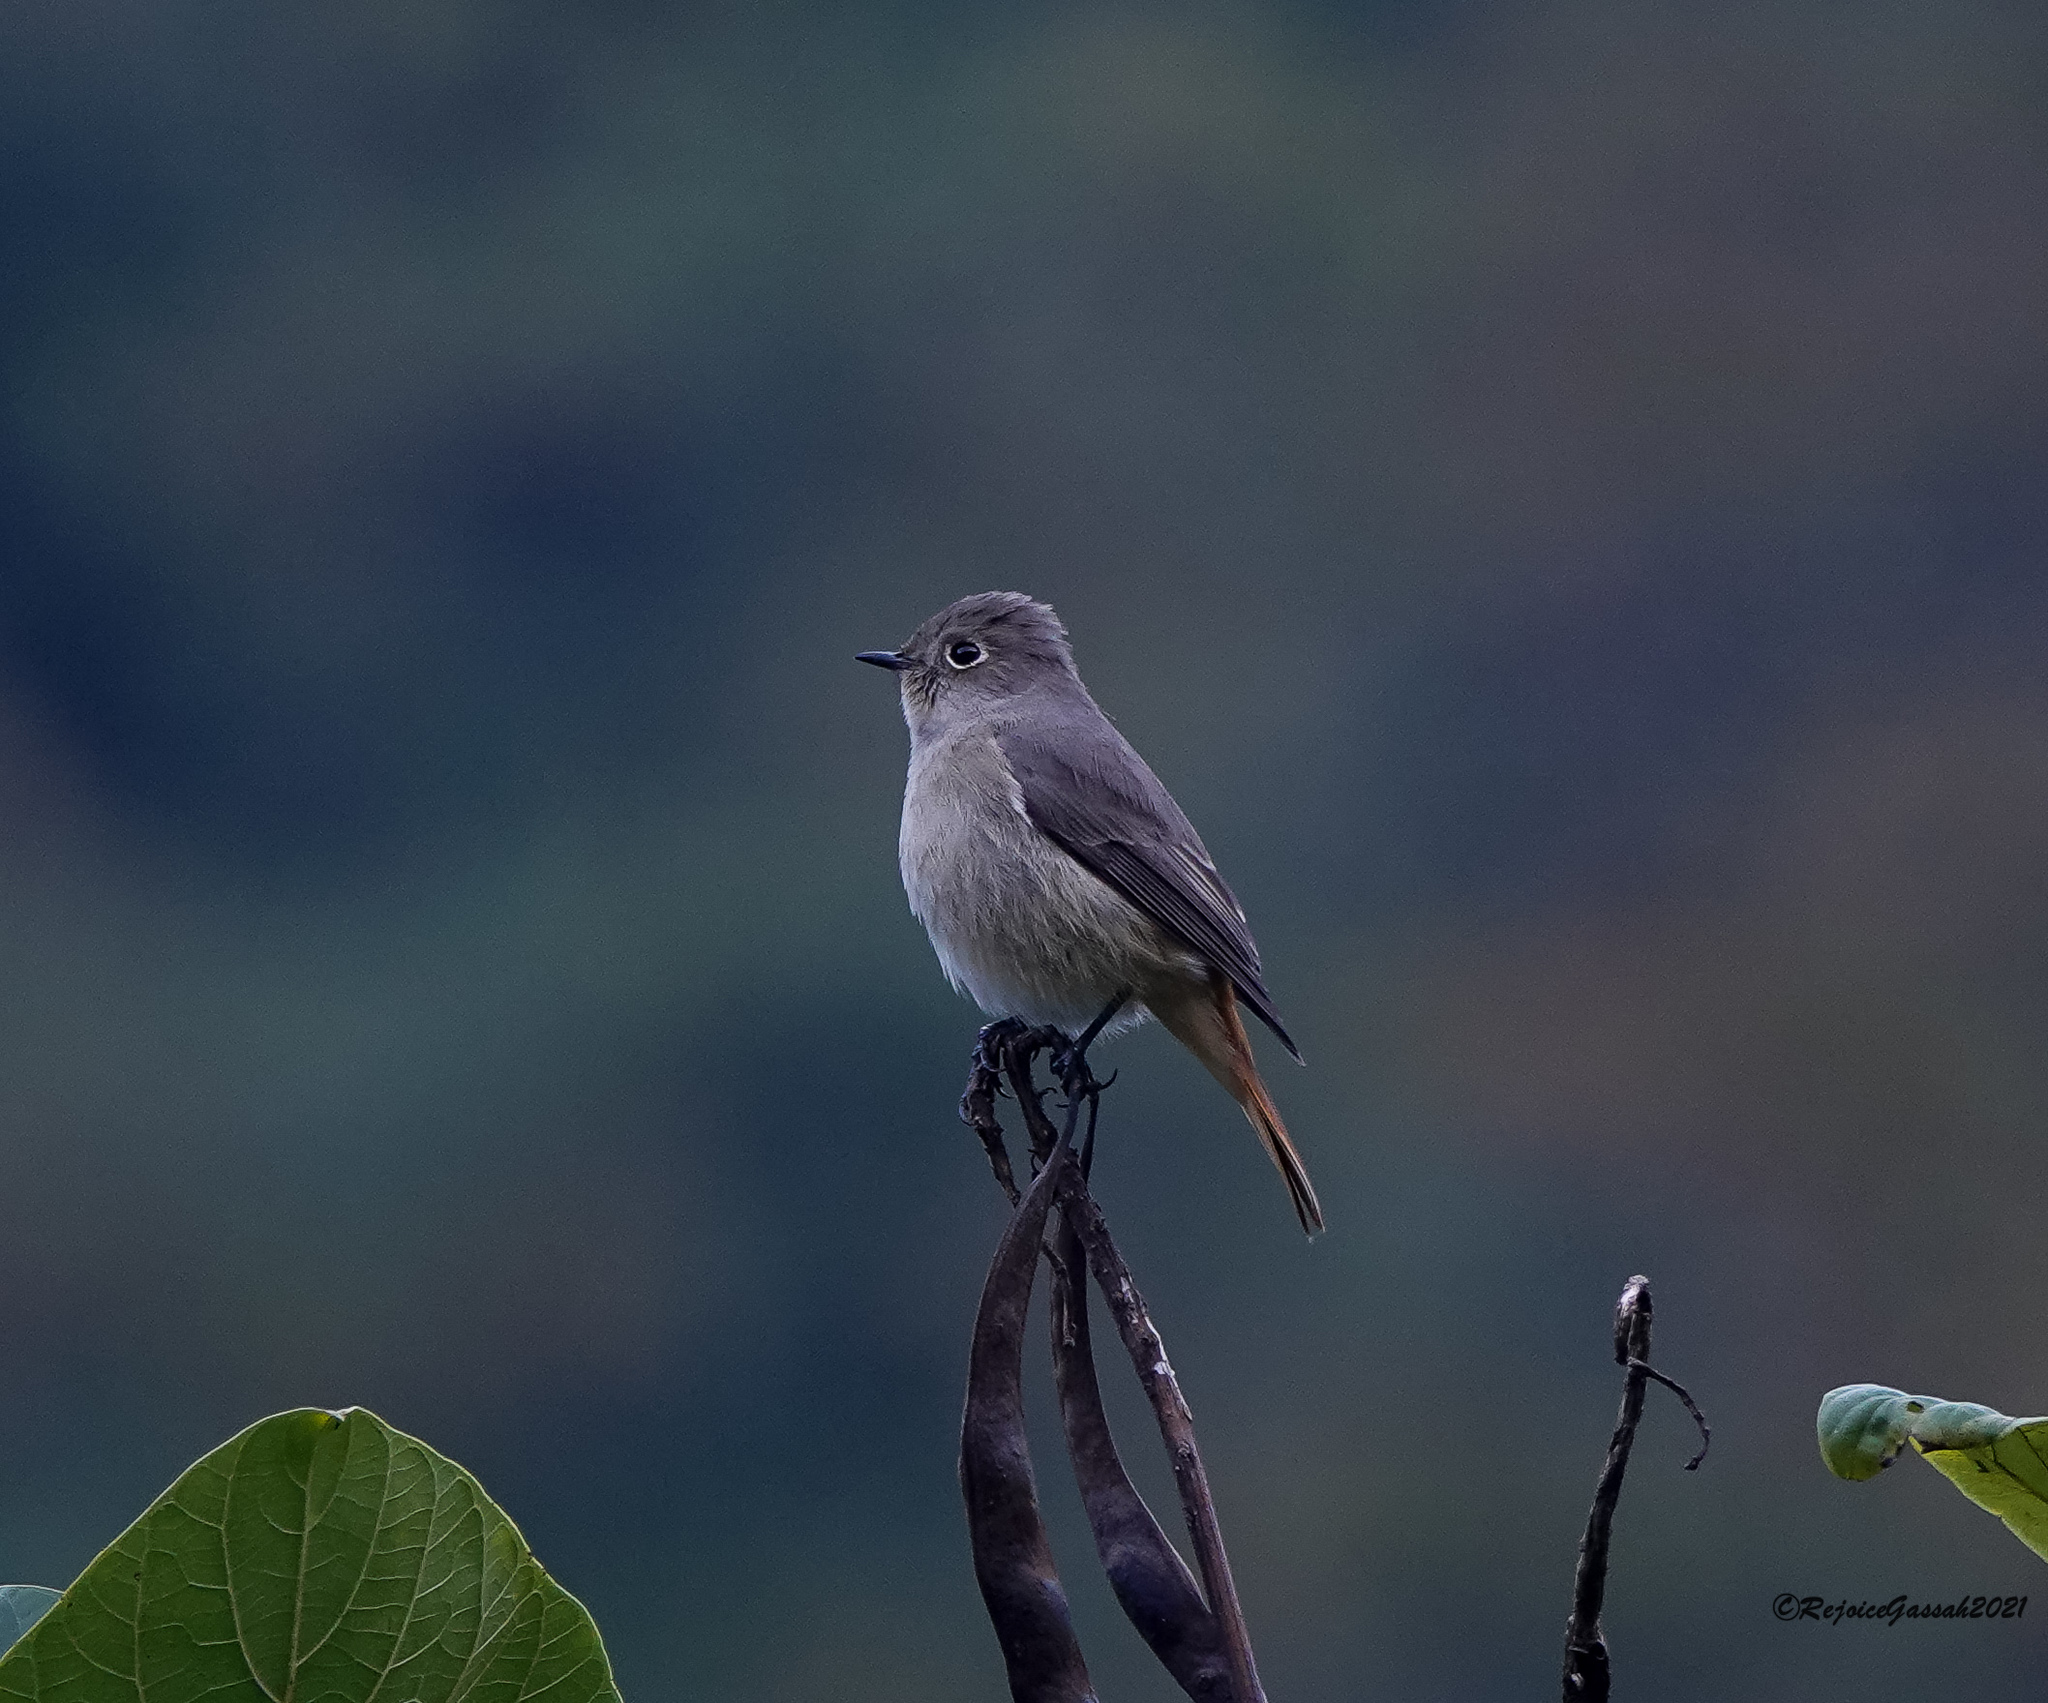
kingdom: Animalia
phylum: Chordata
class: Aves
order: Passeriformes
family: Muscicapidae
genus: Phoenicurus
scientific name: Phoenicurus frontalis
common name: Blue-fronted redstart
